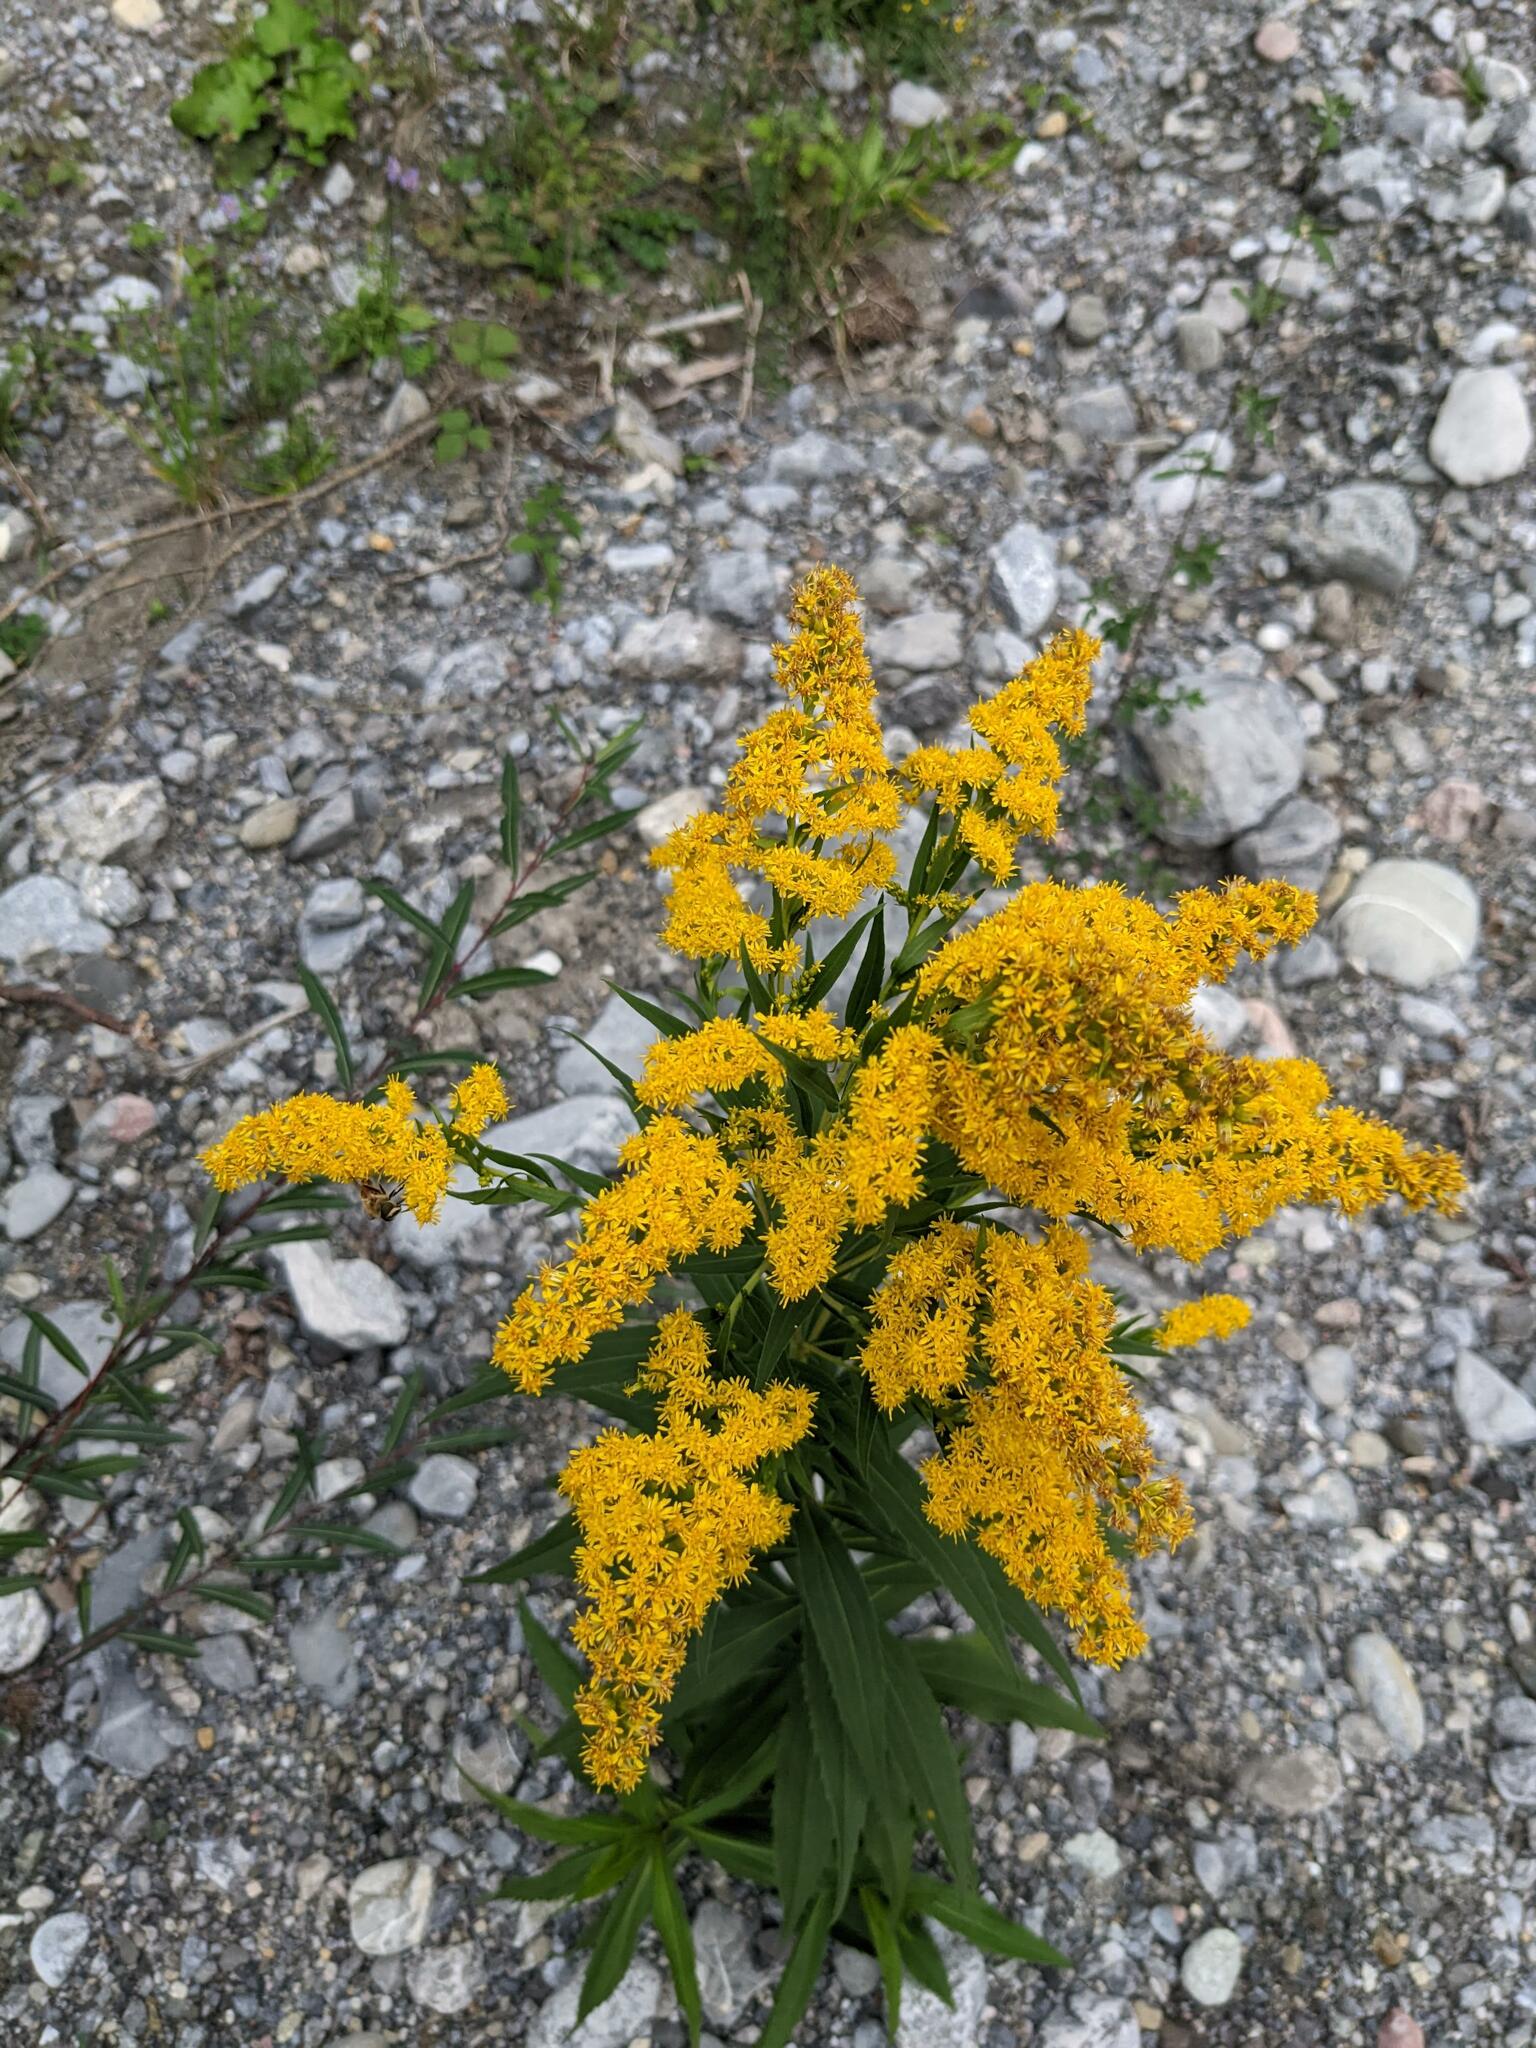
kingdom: Plantae
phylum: Tracheophyta
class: Magnoliopsida
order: Asterales
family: Asteraceae
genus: Solidago
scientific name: Solidago gigantea
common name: Giant goldenrod
